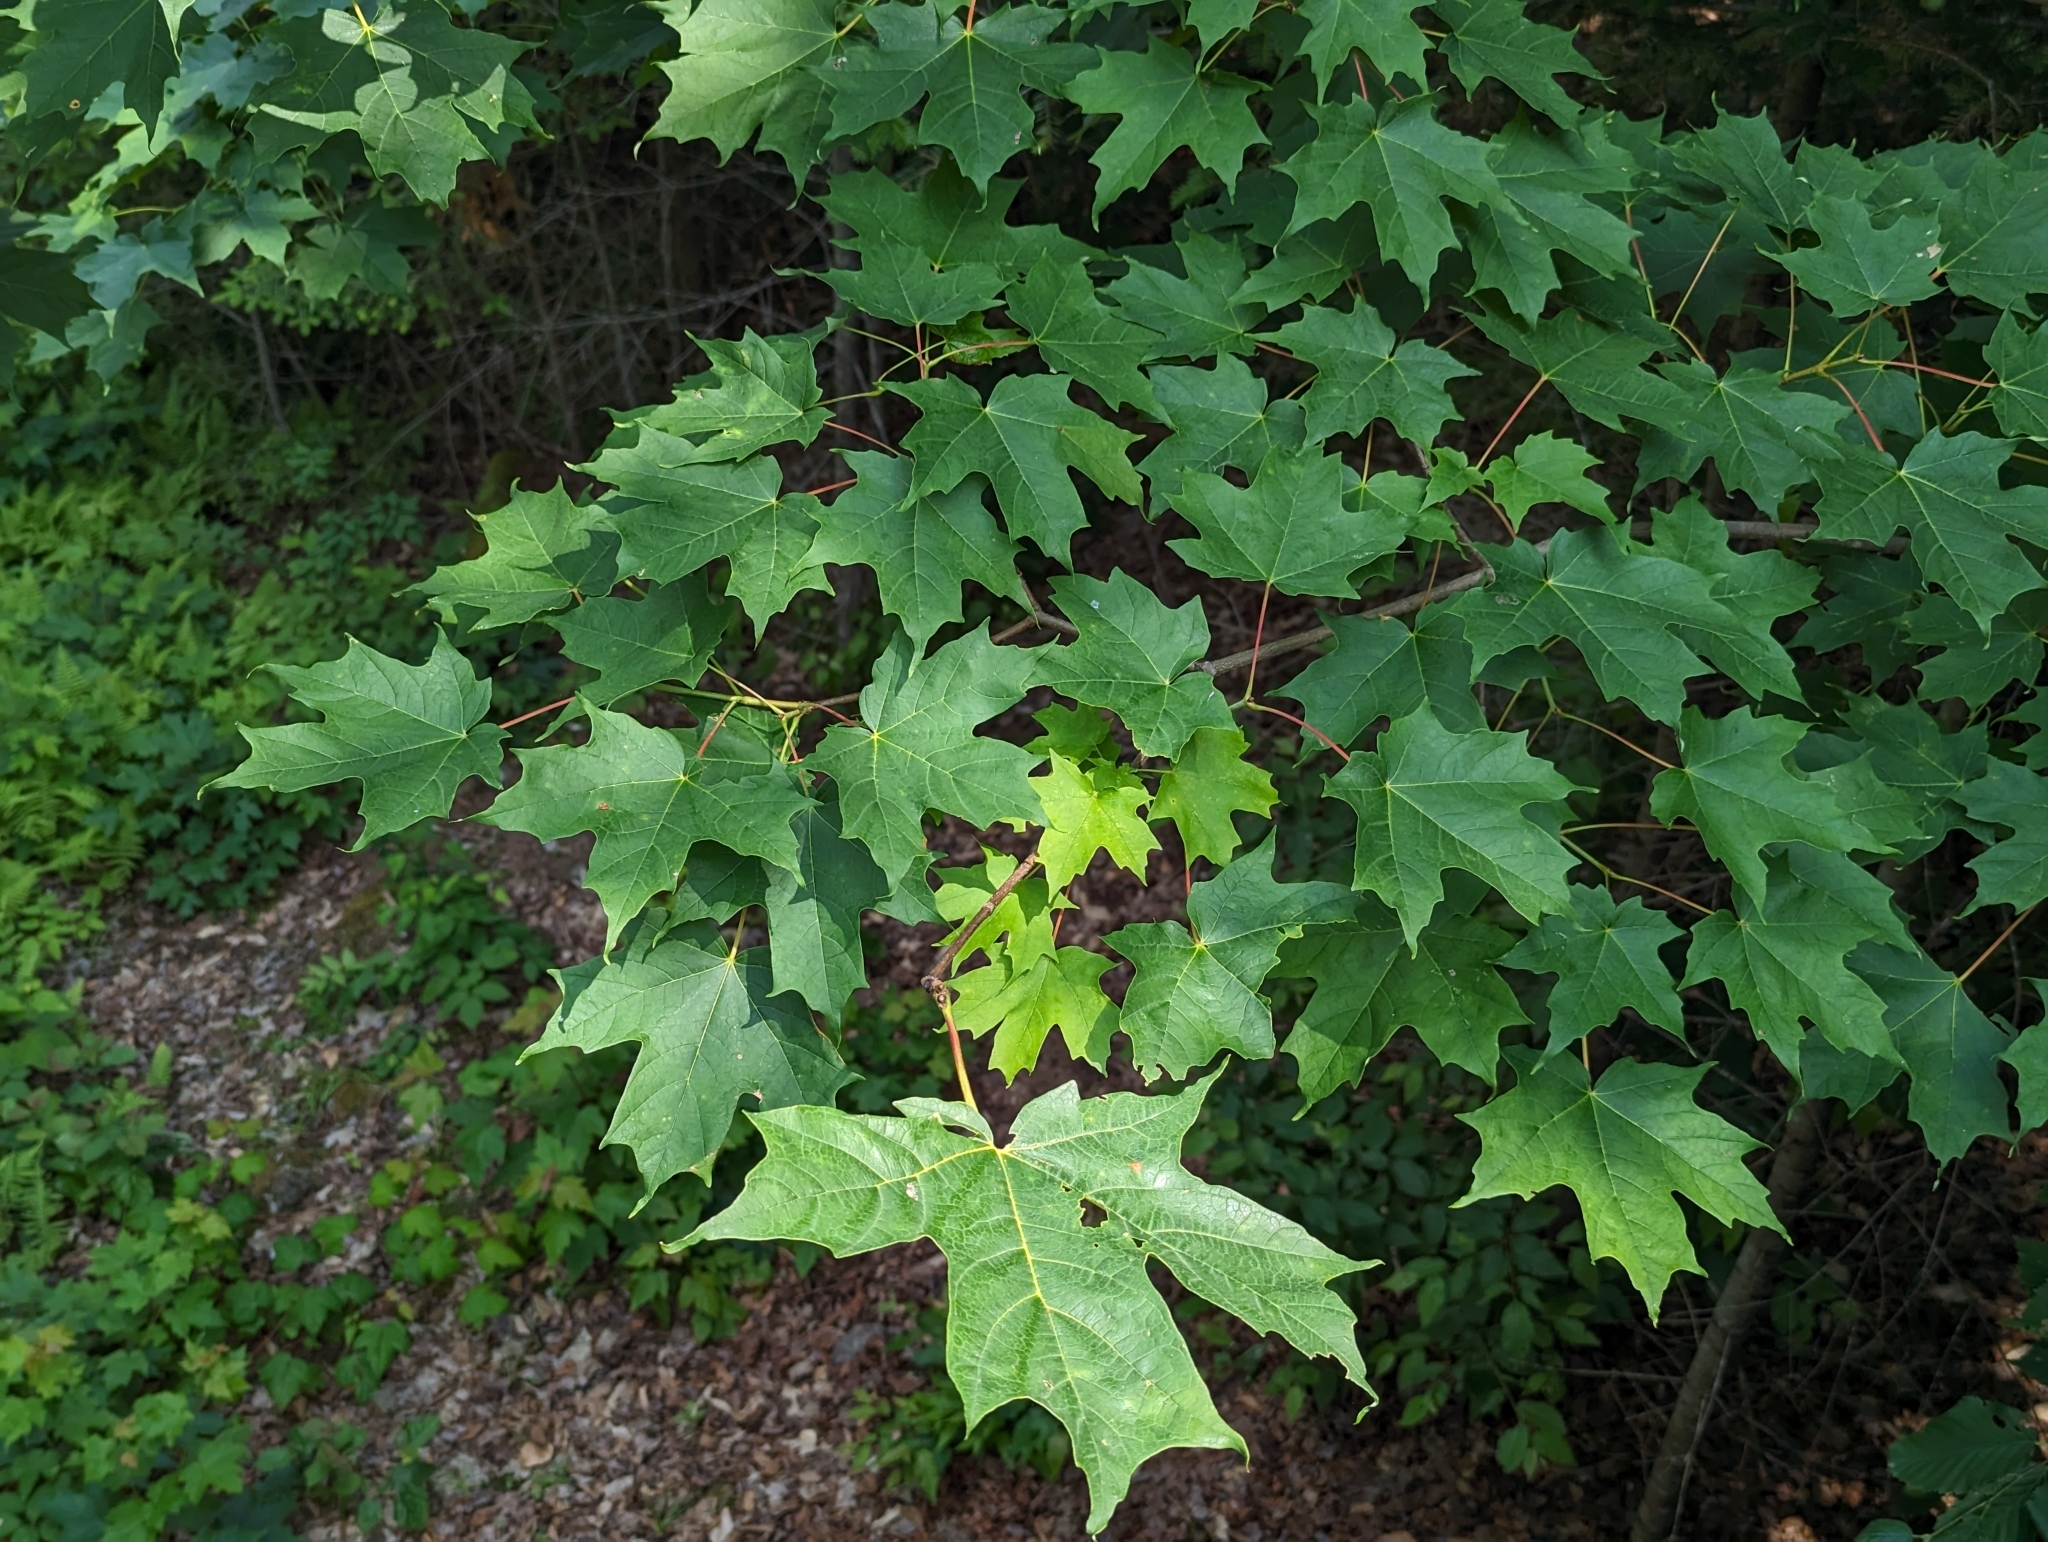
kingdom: Plantae
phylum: Tracheophyta
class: Magnoliopsida
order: Sapindales
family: Sapindaceae
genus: Acer
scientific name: Acer saccharum
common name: Sugar maple
